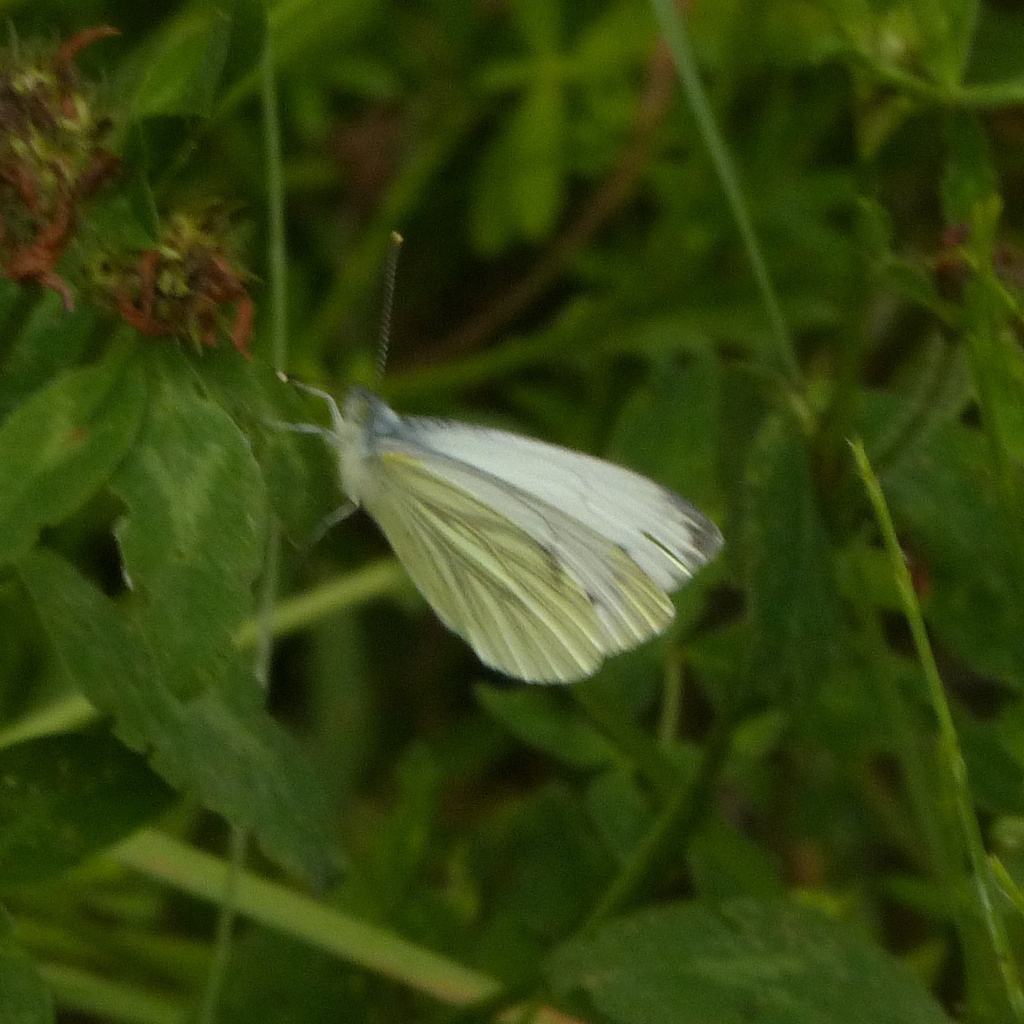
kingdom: Animalia
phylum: Arthropoda
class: Insecta
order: Lepidoptera
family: Pieridae
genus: Pieris
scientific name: Pieris napi
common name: Green-veined white
